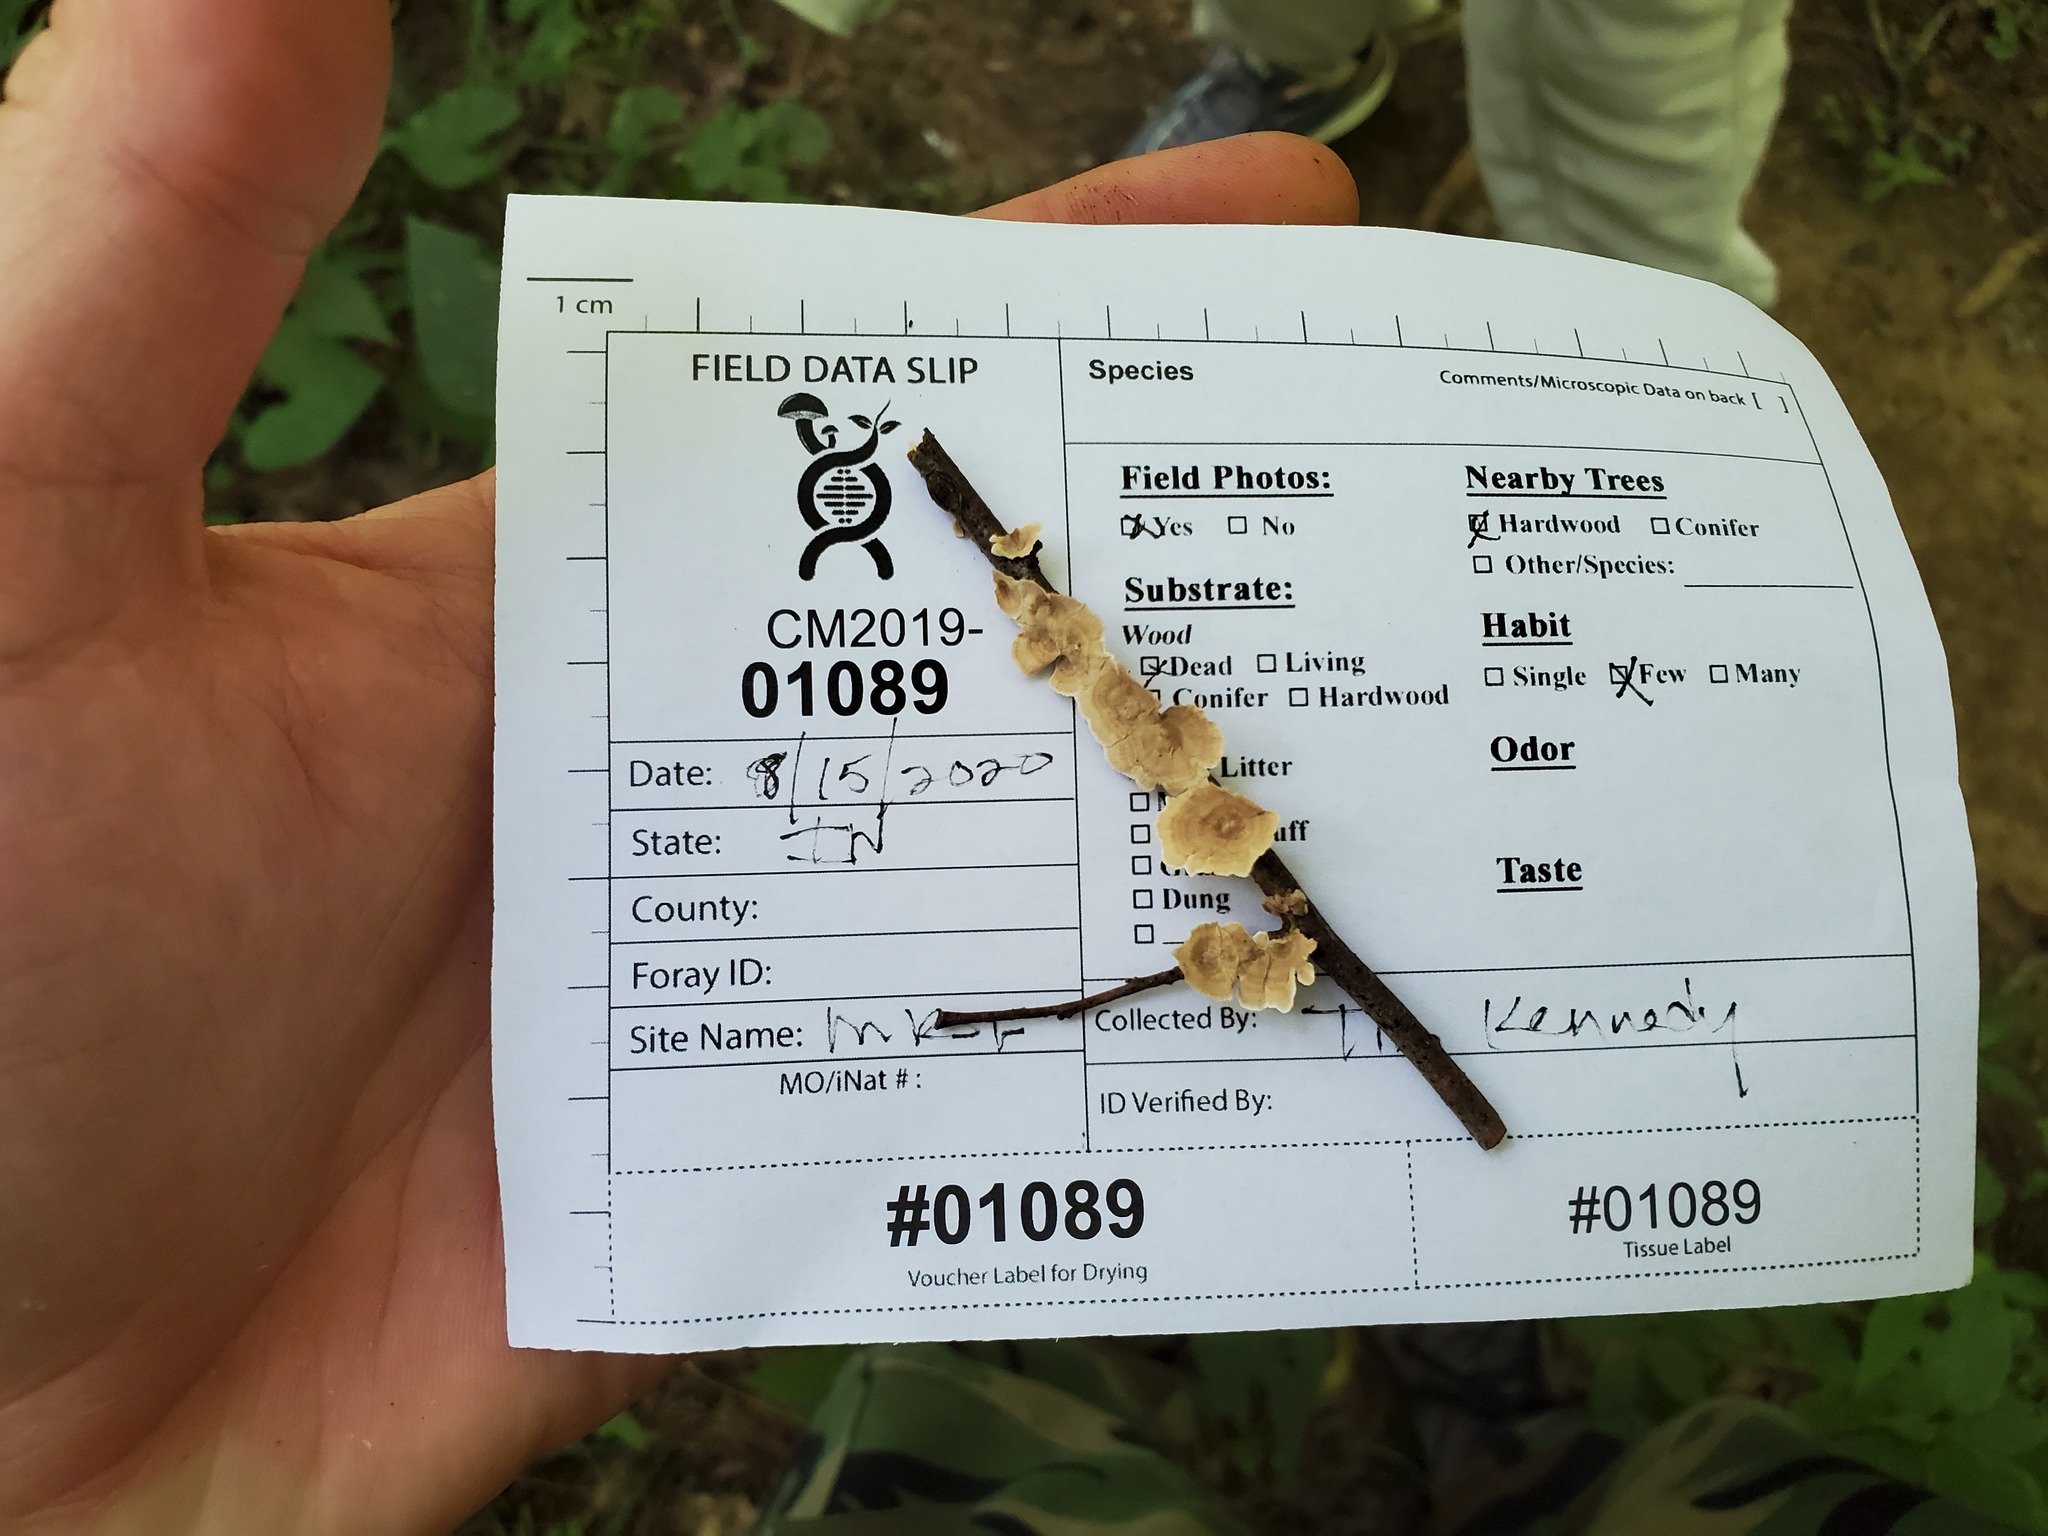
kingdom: Fungi
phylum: Basidiomycota
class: Agaricomycetes
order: Russulales
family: Stereaceae
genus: Stereum
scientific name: Stereum striatum
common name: Silky parchment
